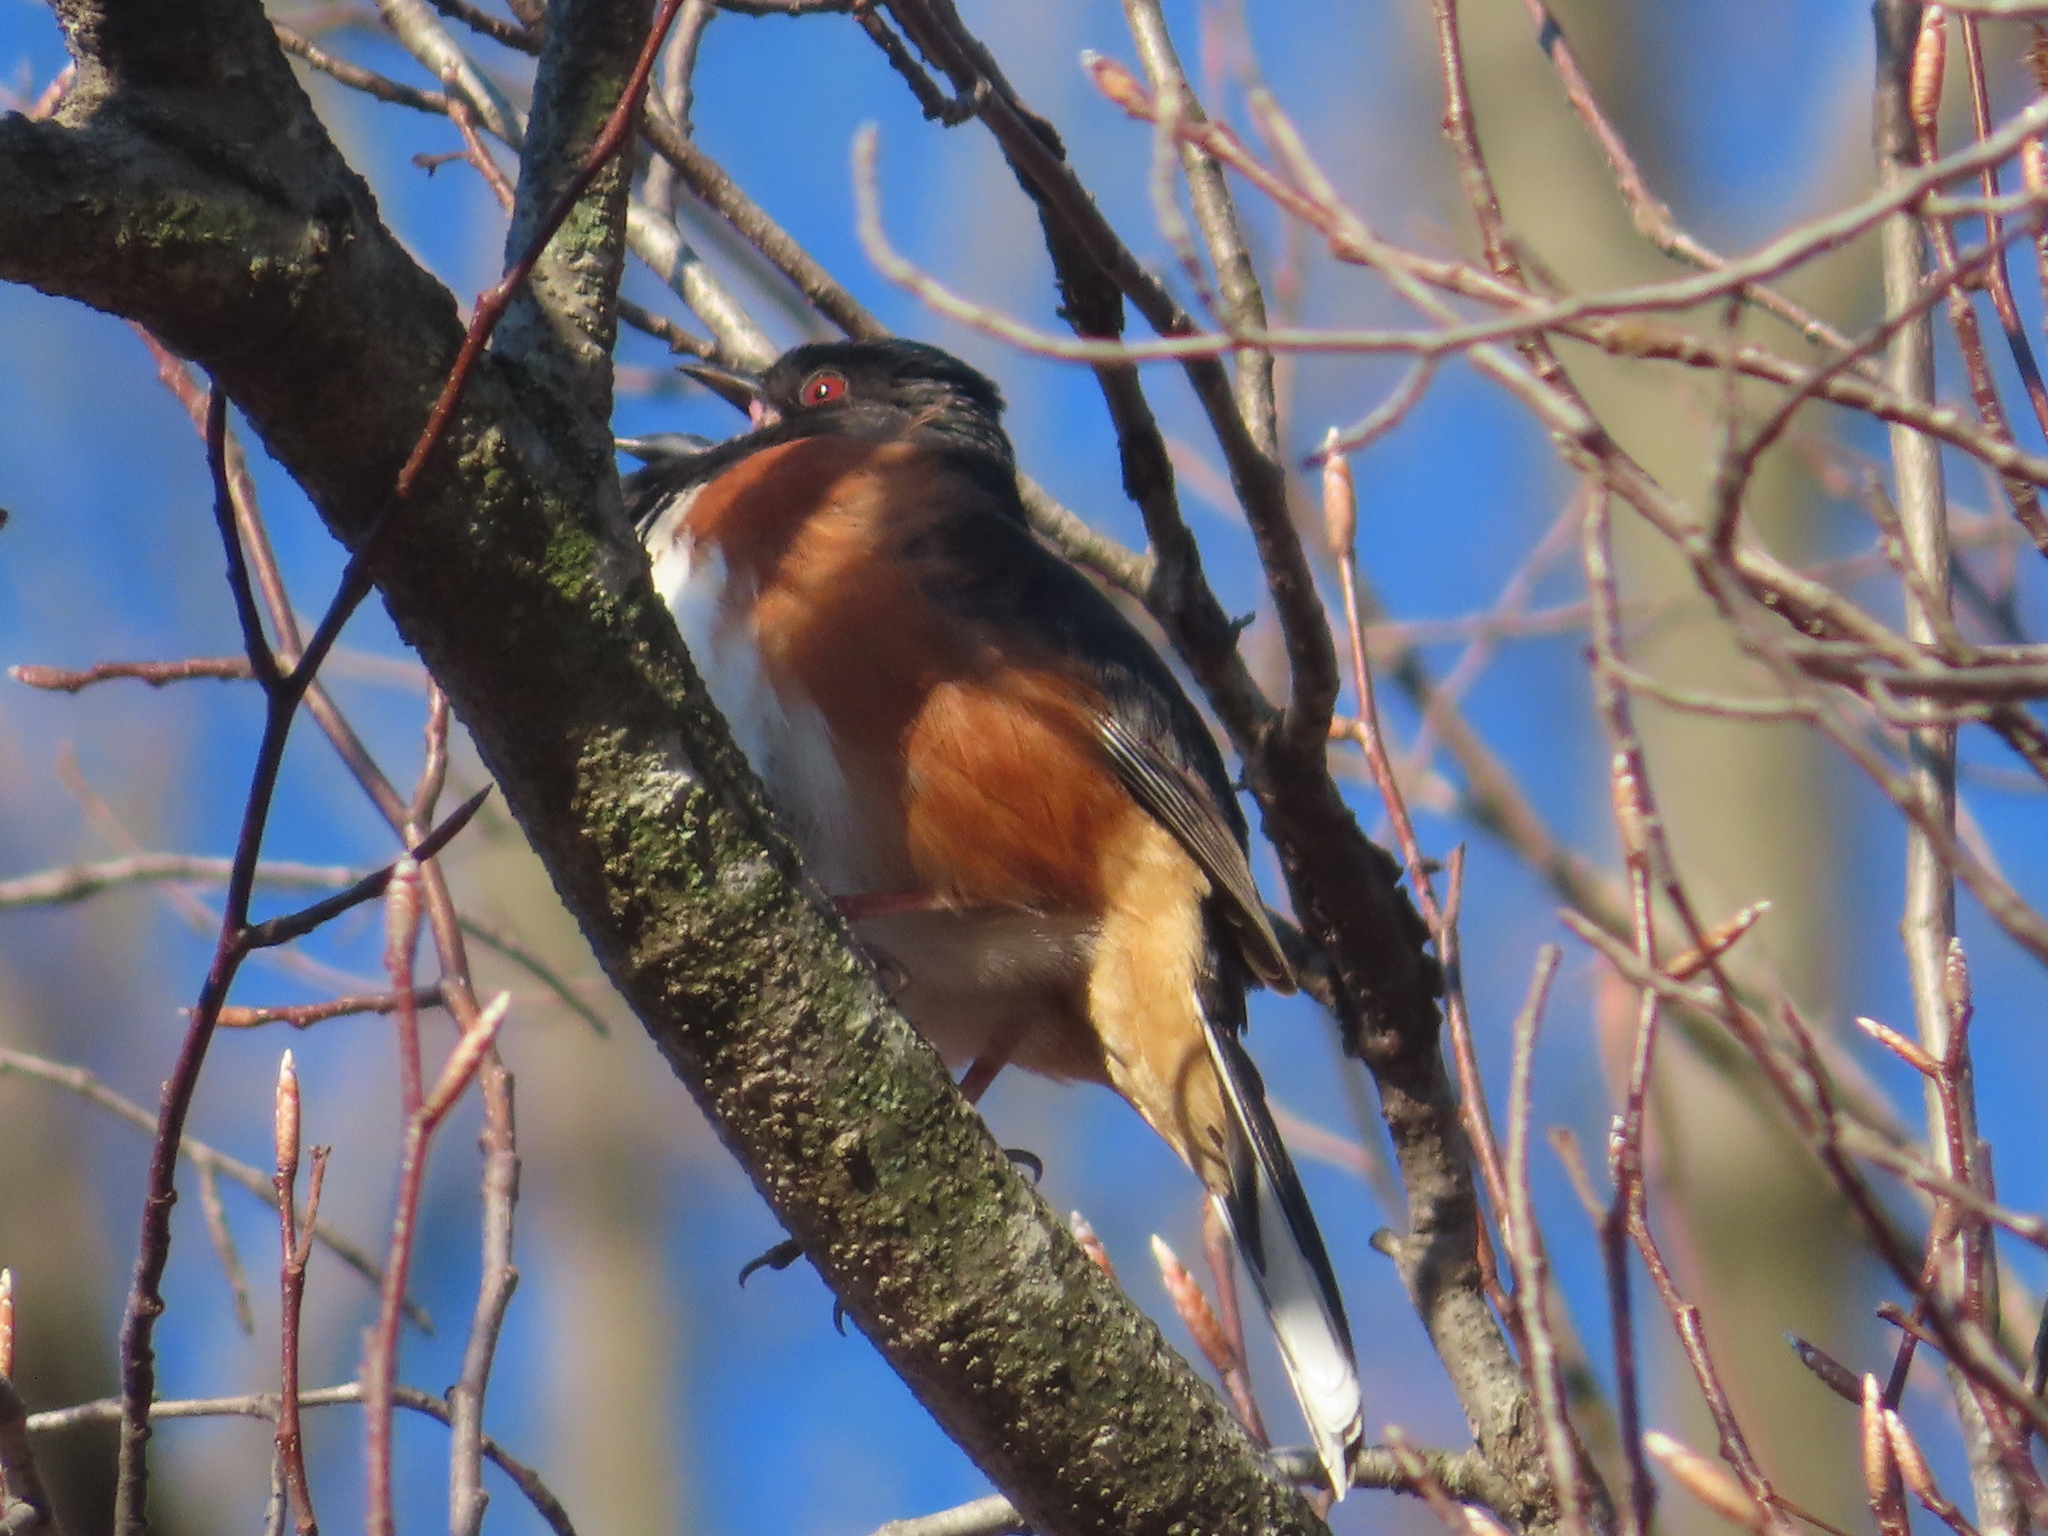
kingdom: Animalia
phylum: Chordata
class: Aves
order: Passeriformes
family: Passerellidae
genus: Pipilo
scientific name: Pipilo erythrophthalmus
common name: Eastern towhee
